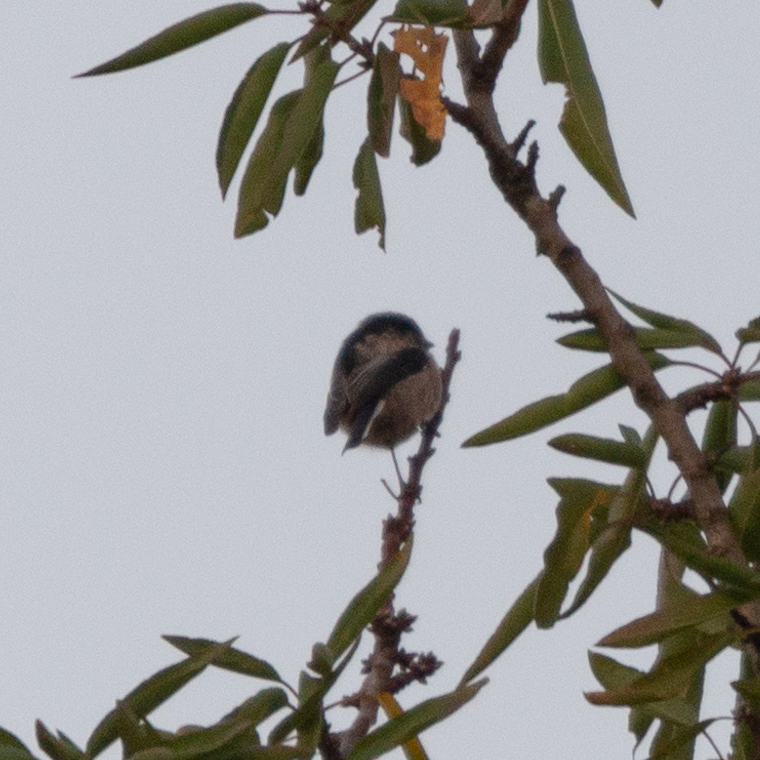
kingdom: Animalia
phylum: Chordata
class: Aves
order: Passeriformes
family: Aegithalidae
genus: Aegithalos
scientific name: Aegithalos caudatus
